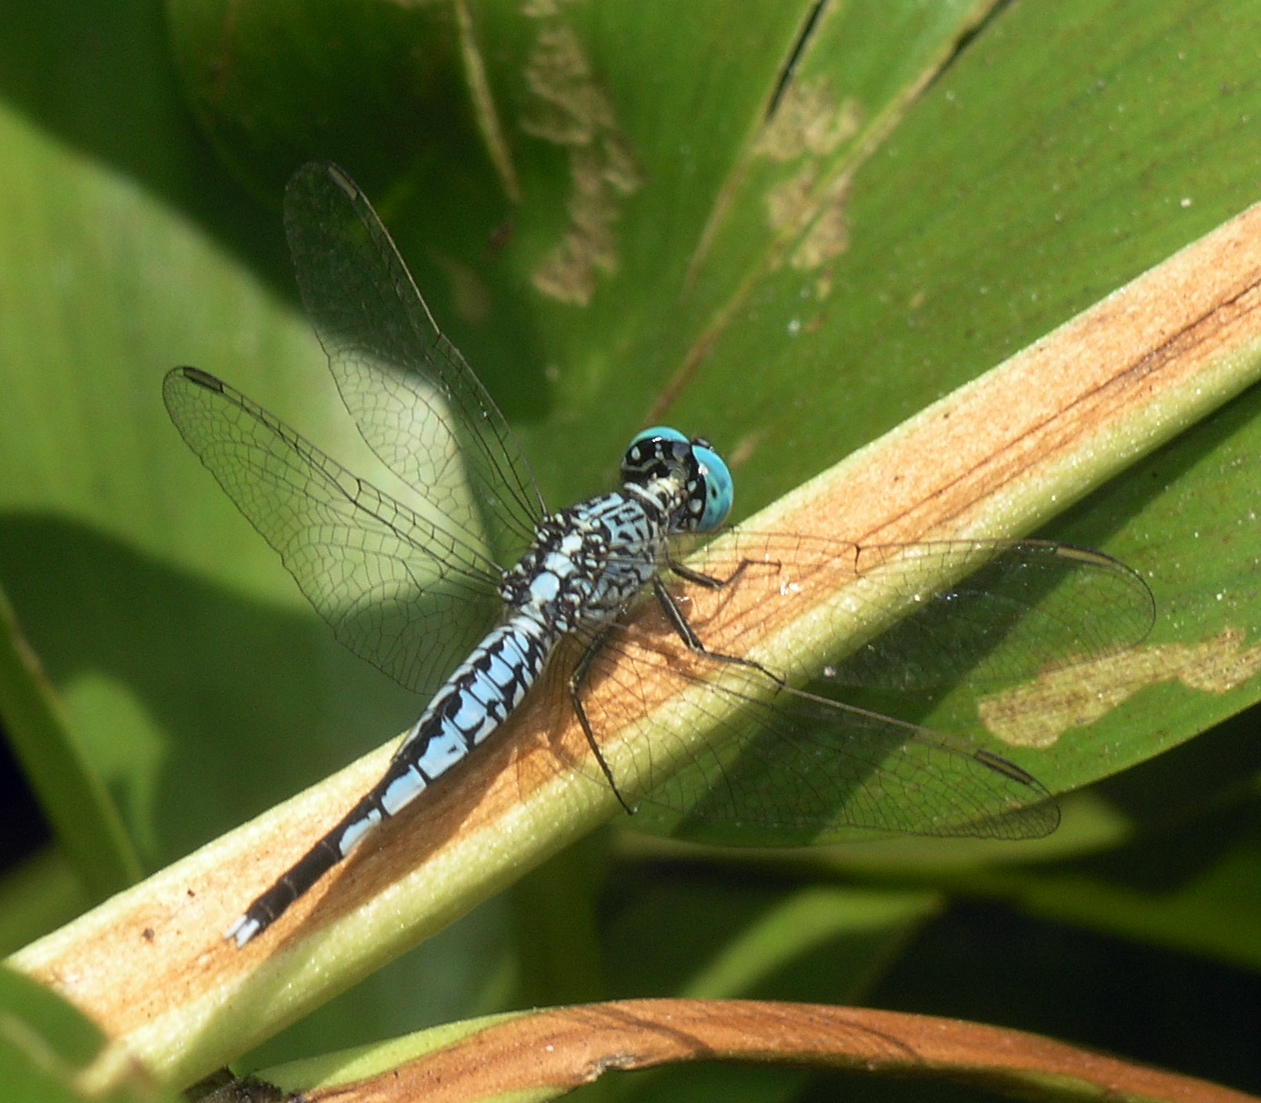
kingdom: Animalia
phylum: Arthropoda
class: Insecta
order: Odonata
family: Libellulidae
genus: Acisoma
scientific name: Acisoma panorpoides
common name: Asian pintail
